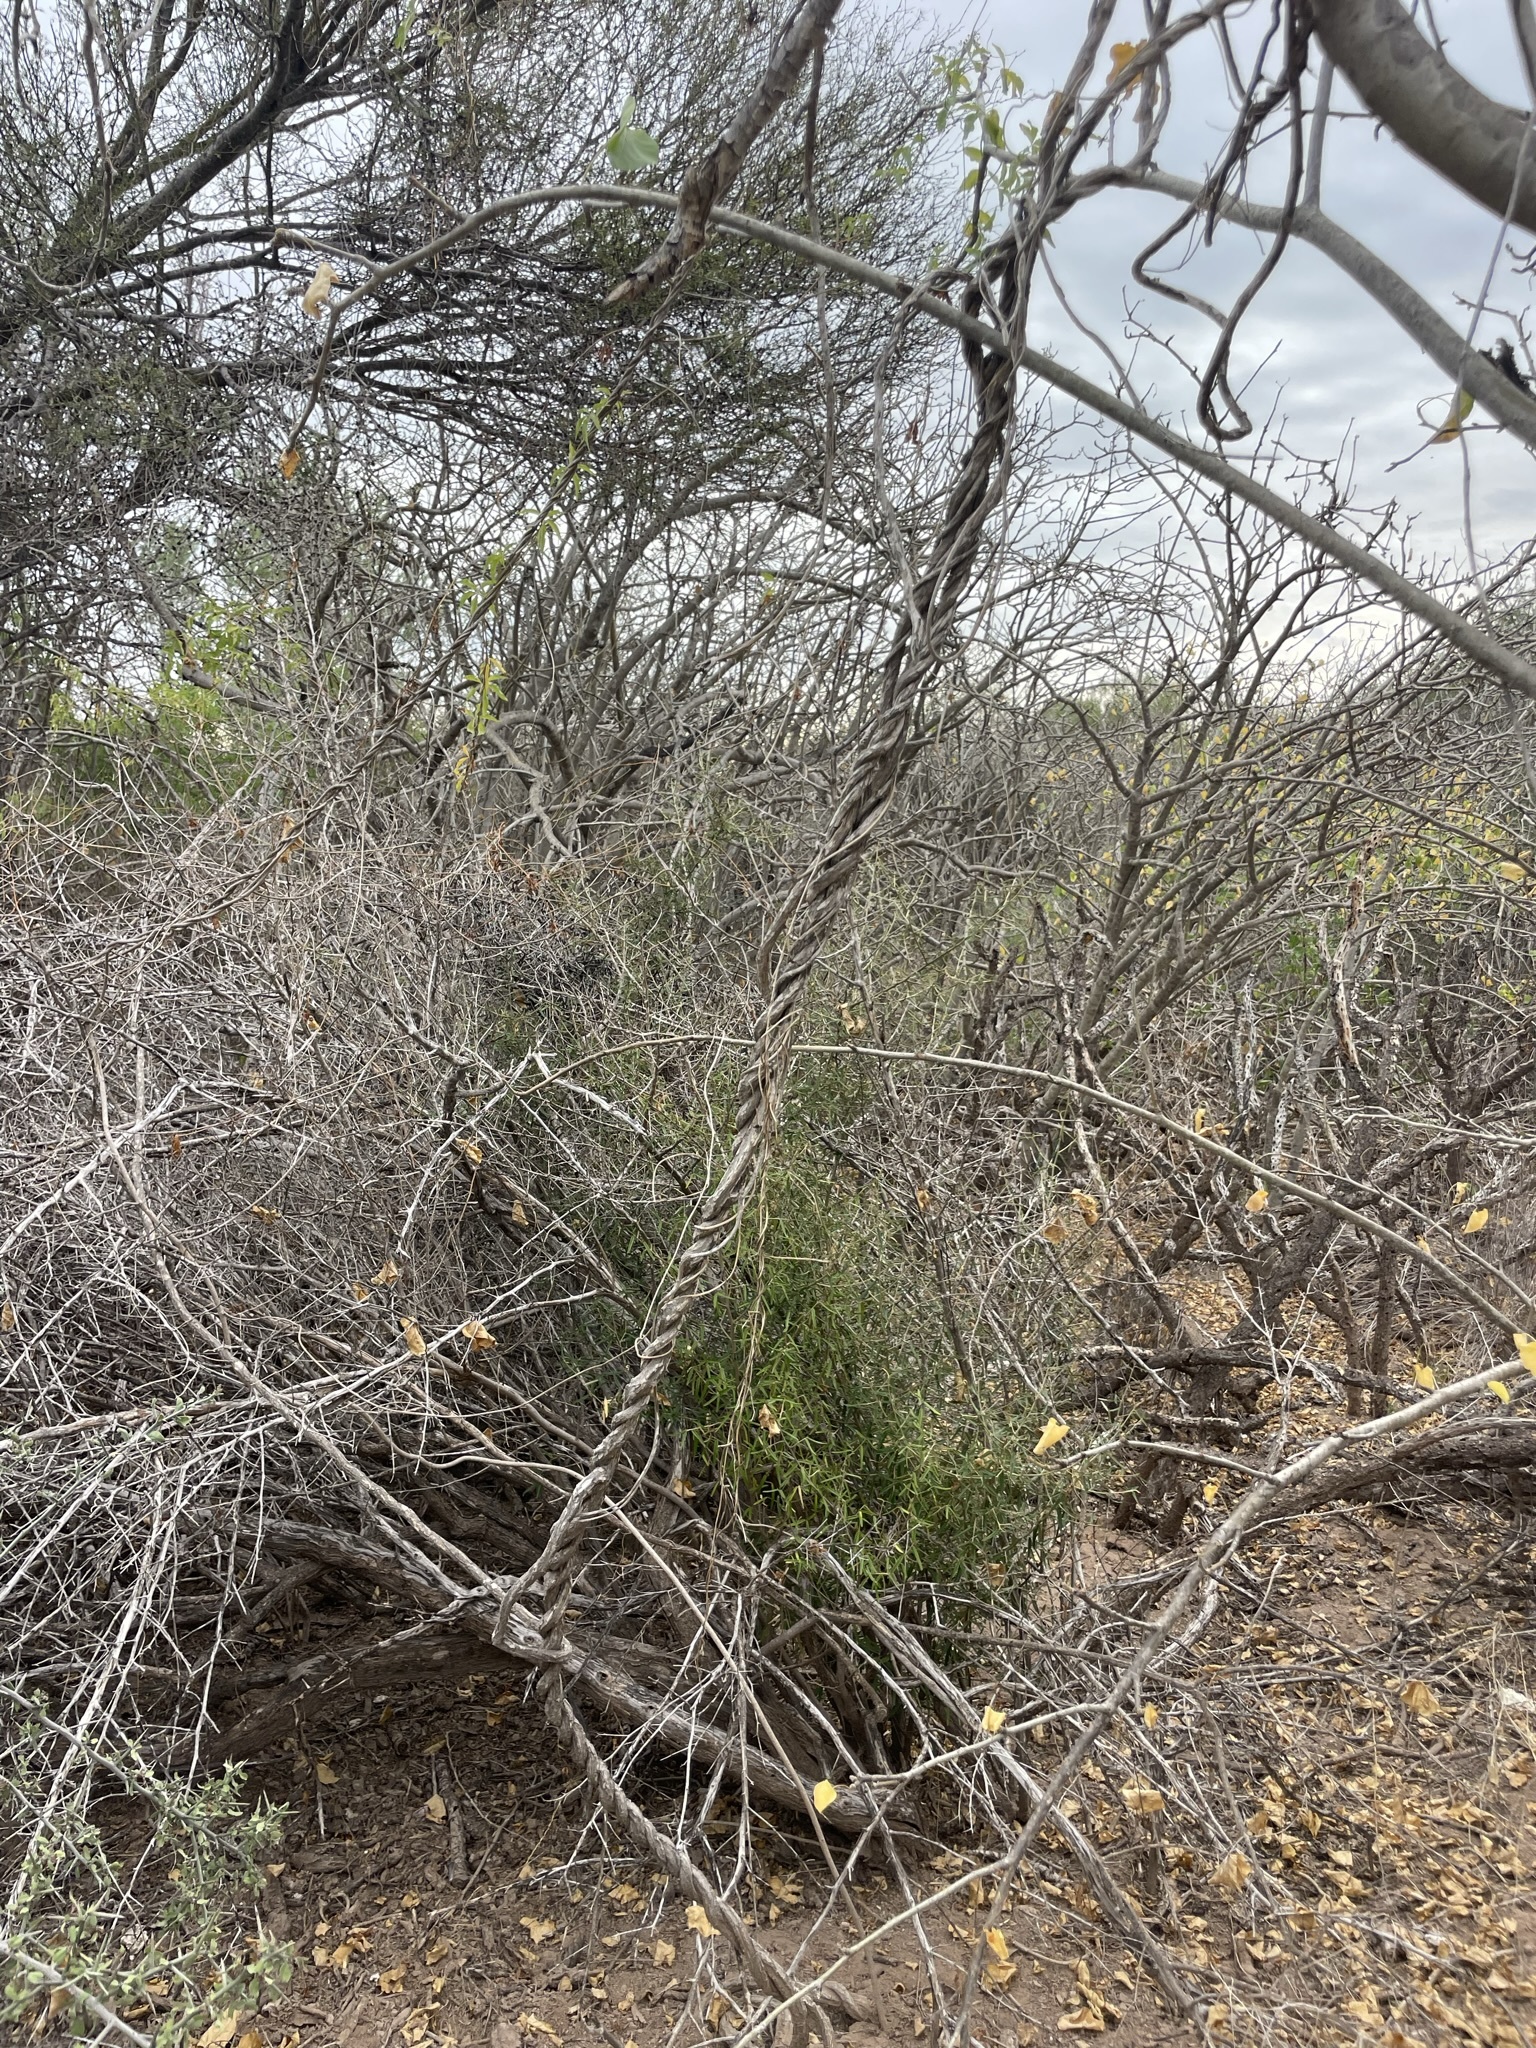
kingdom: Plantae
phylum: Tracheophyta
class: Magnoliopsida
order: Solanales
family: Convolvulaceae
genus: Distimake
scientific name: Distimake aureus
